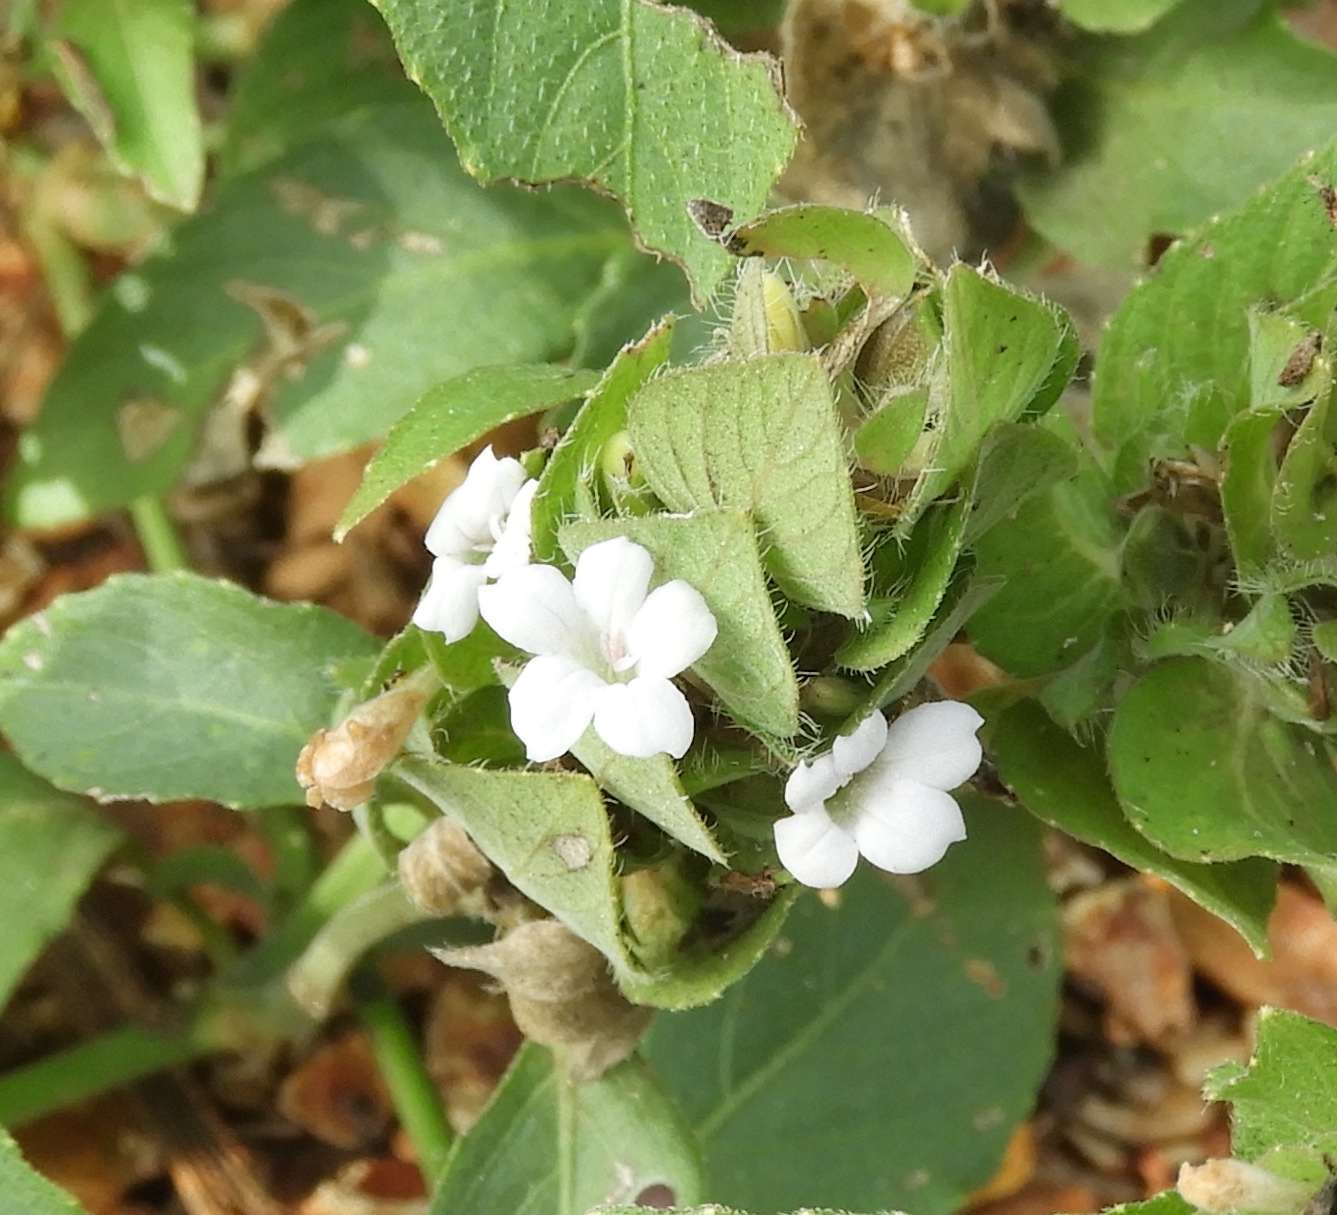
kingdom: Plantae
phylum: Tracheophyta
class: Magnoliopsida
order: Lamiales
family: Acanthaceae
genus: Ruellia
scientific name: Ruellia blechum
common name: Browne's blechum
